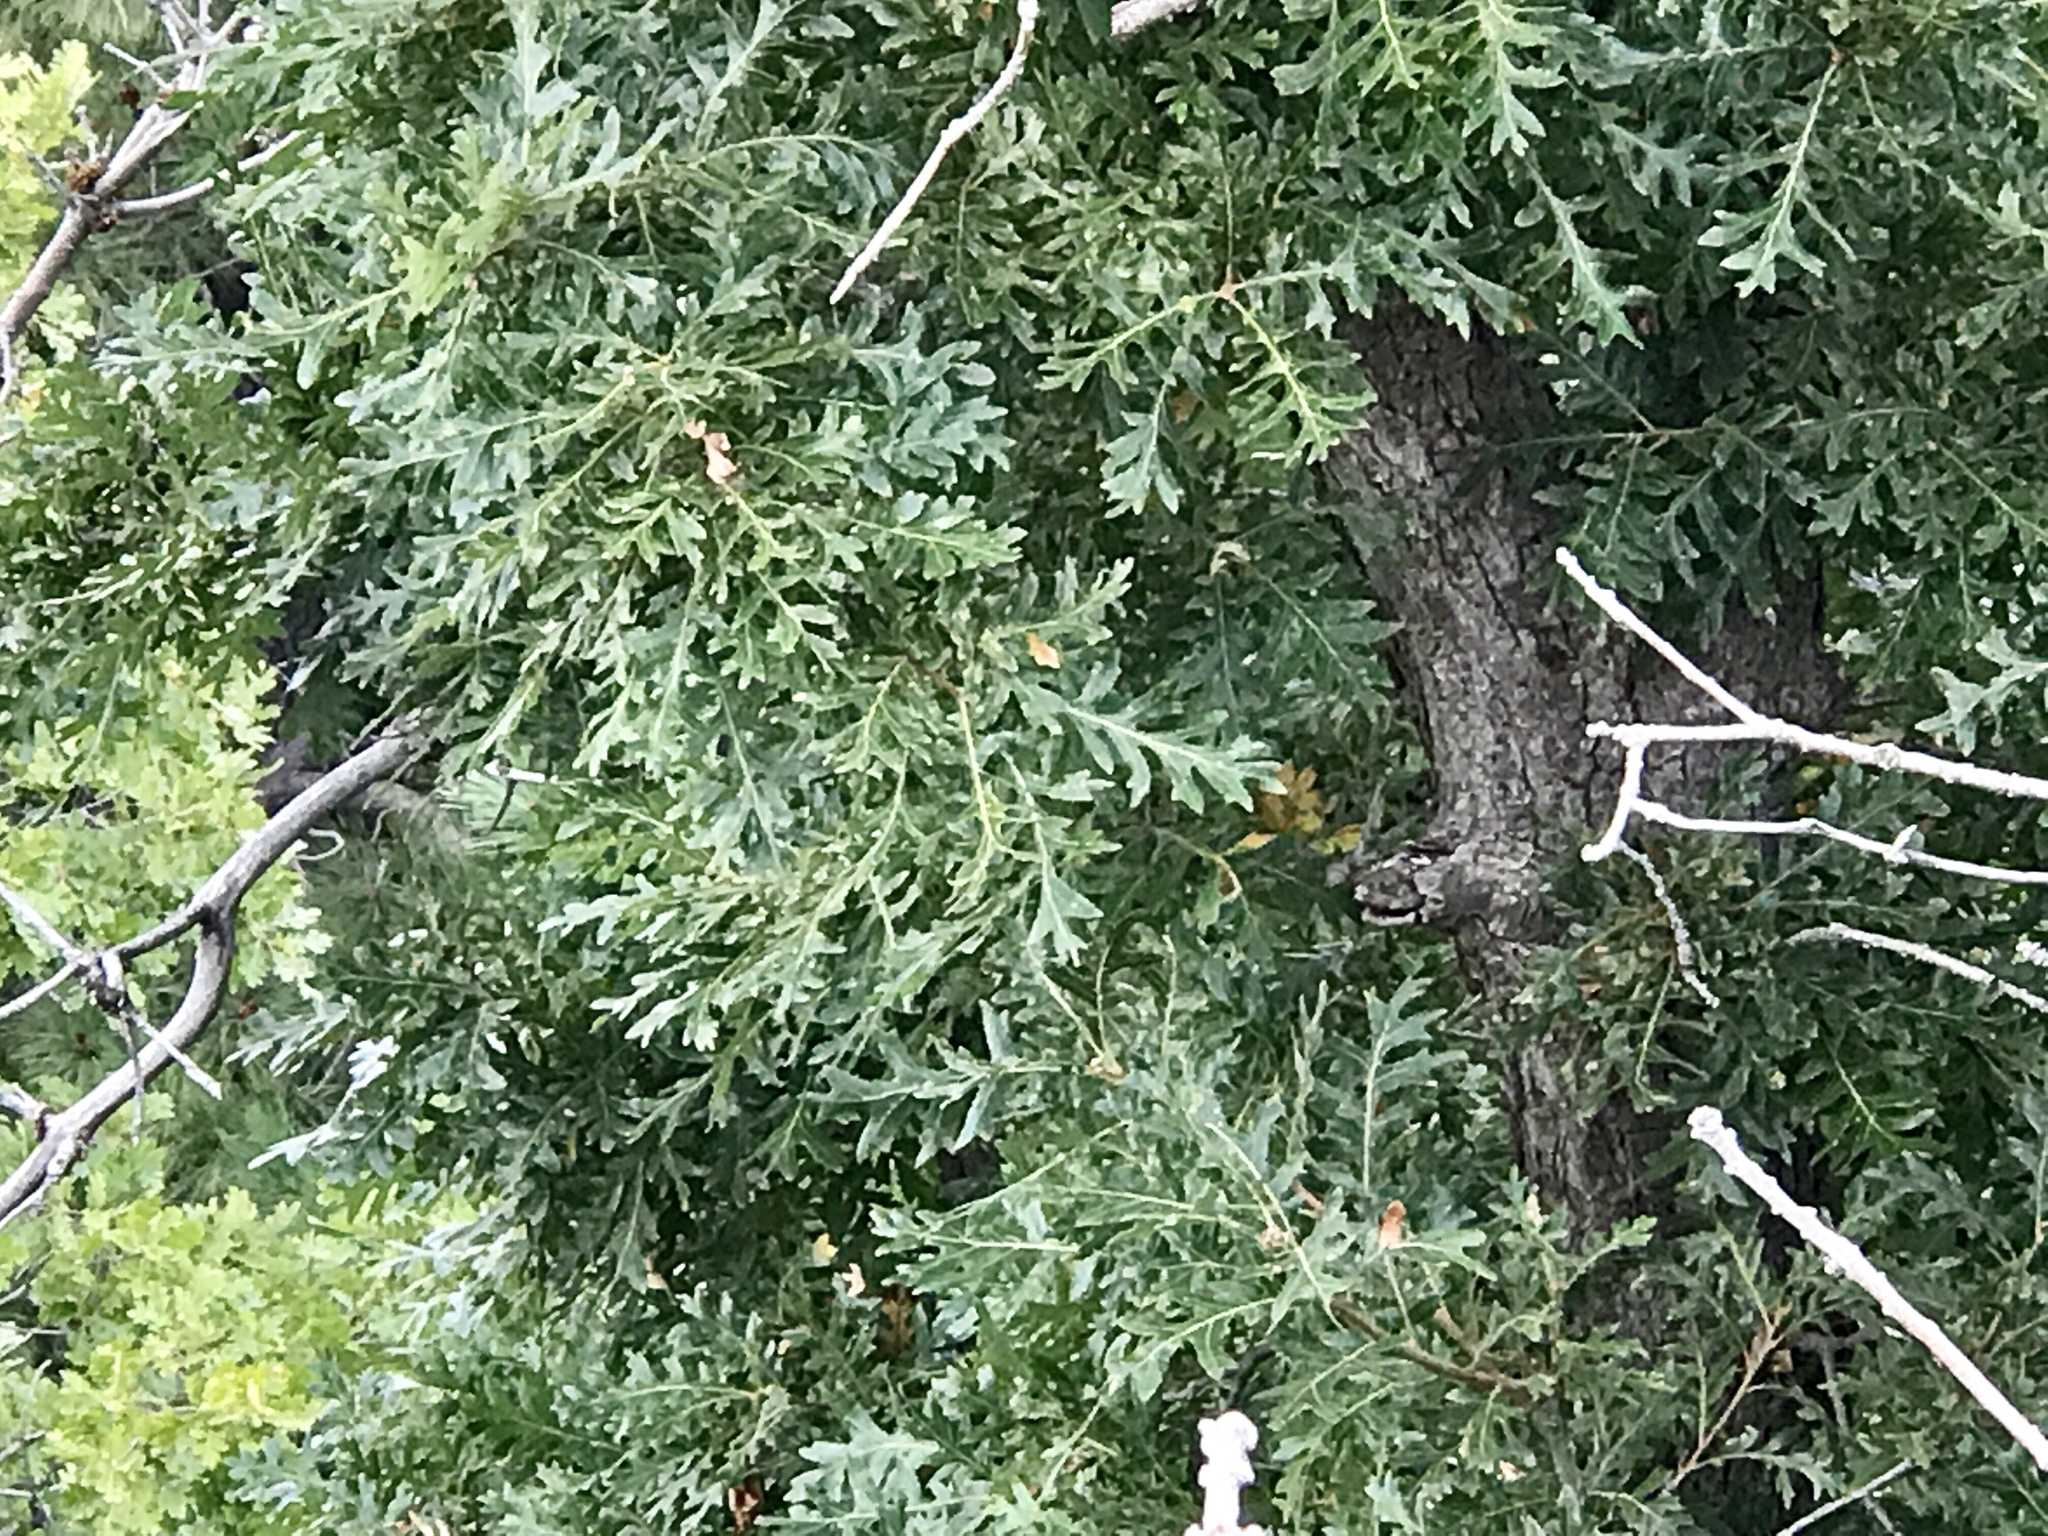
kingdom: Plantae
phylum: Tracheophyta
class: Magnoliopsida
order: Fagales
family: Fagaceae
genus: Quercus
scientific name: Quercus gambelii
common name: Gambel oak
